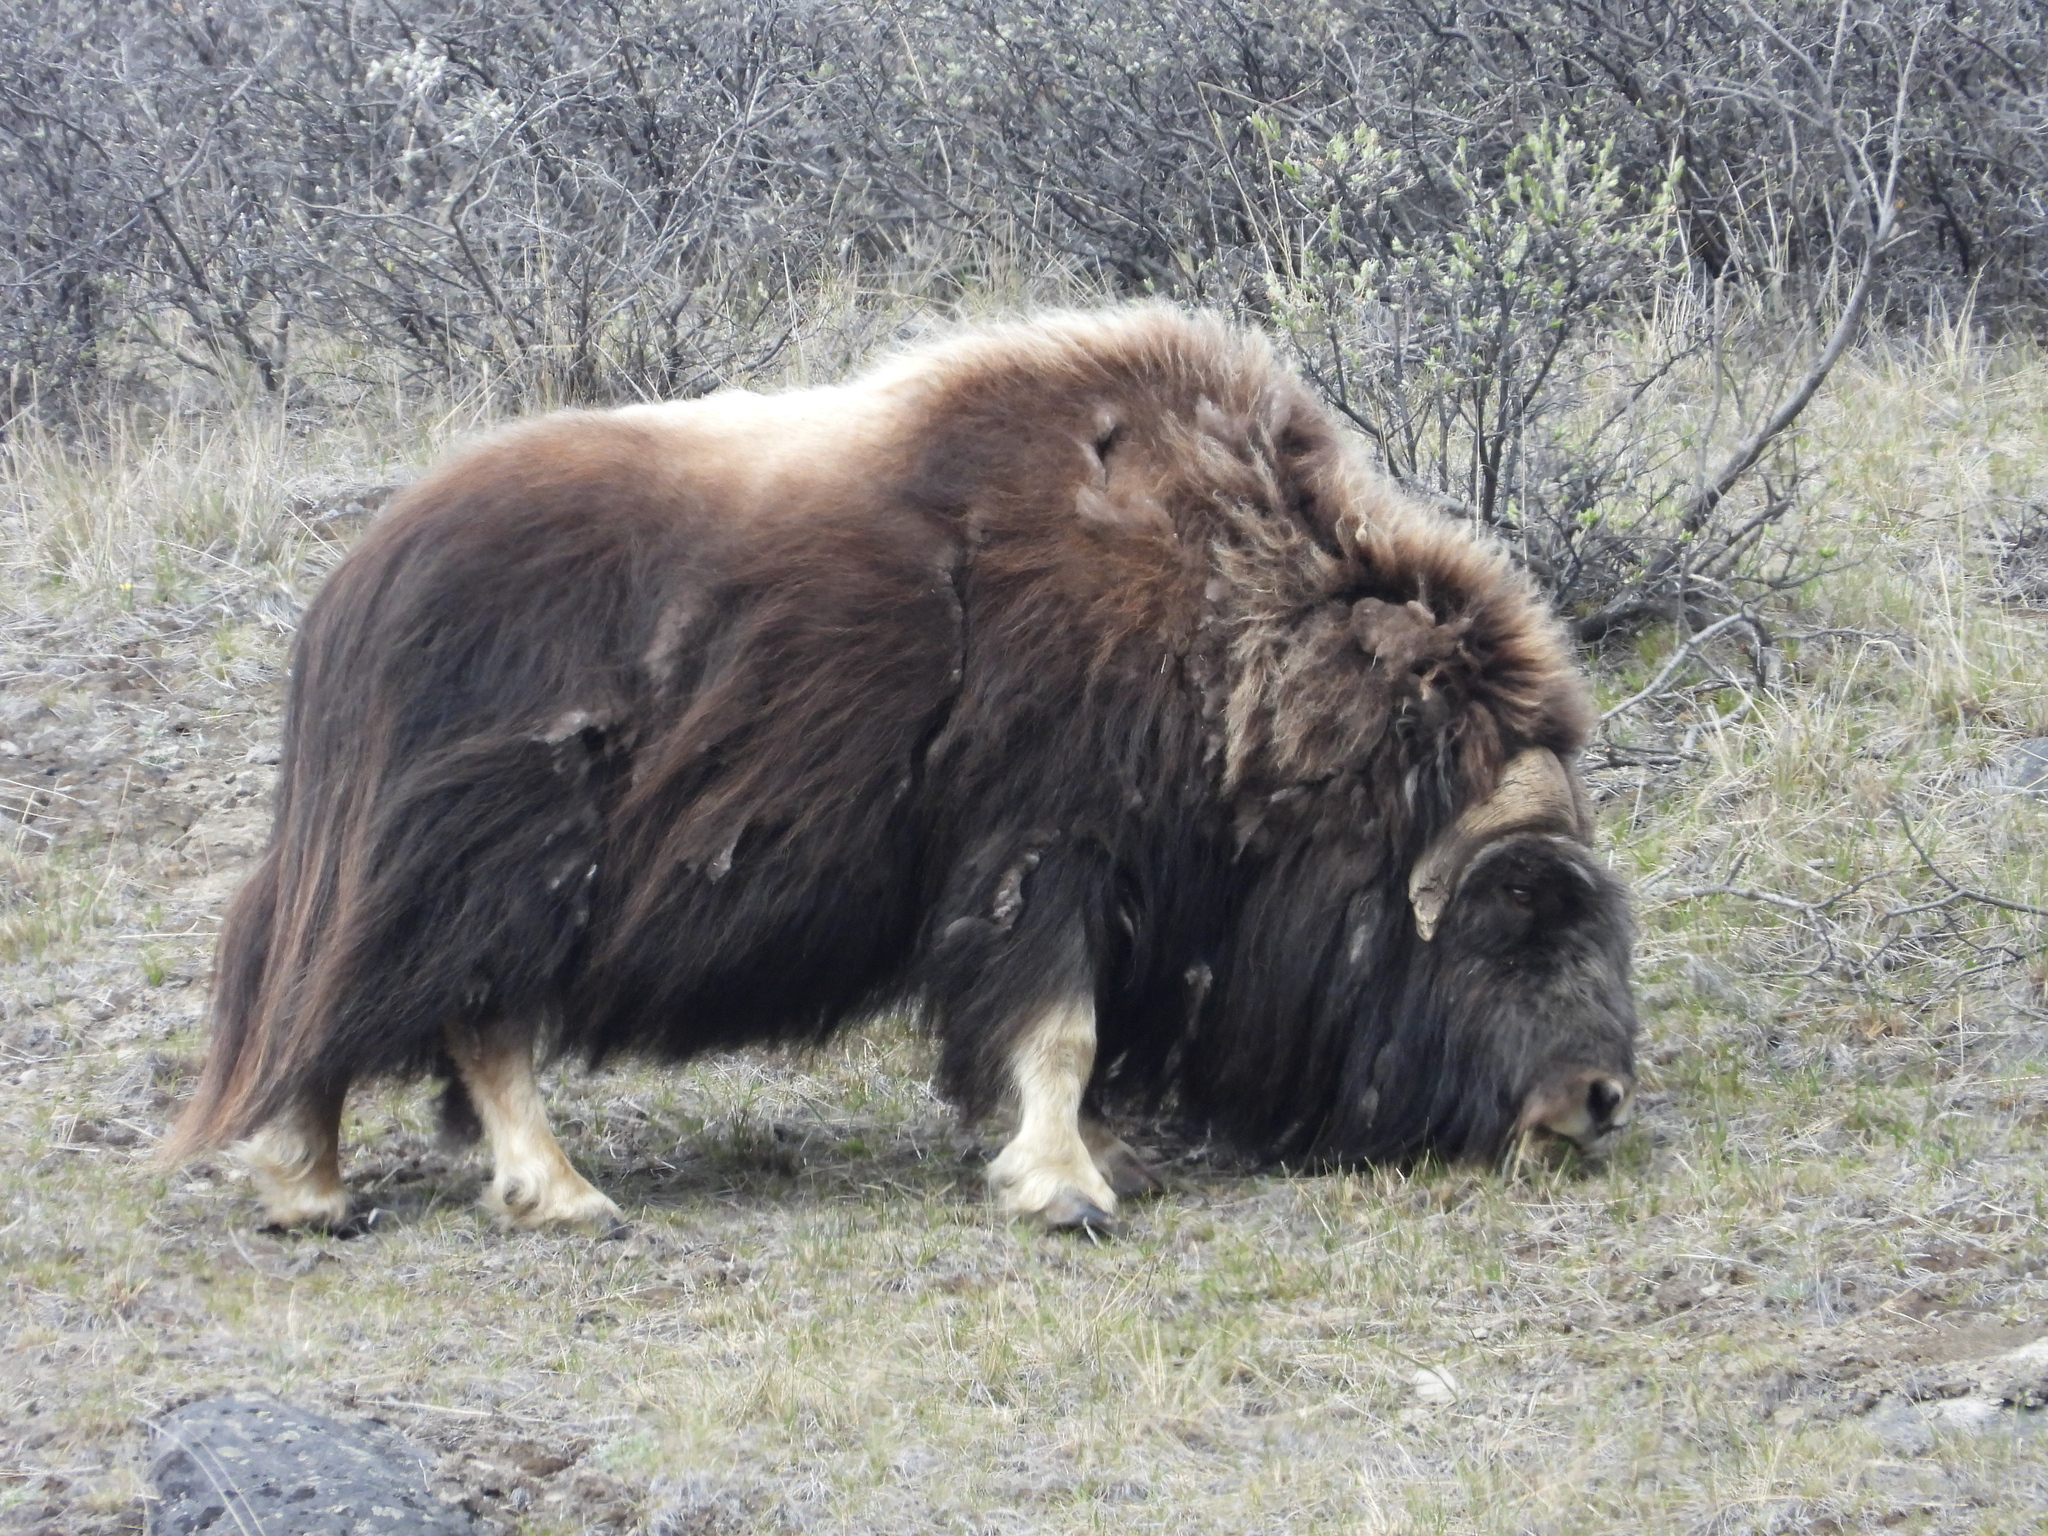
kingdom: Animalia
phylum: Chordata
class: Mammalia
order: Artiodactyla
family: Bovidae
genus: Ovibos
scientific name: Ovibos moschatus
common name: Muskox
